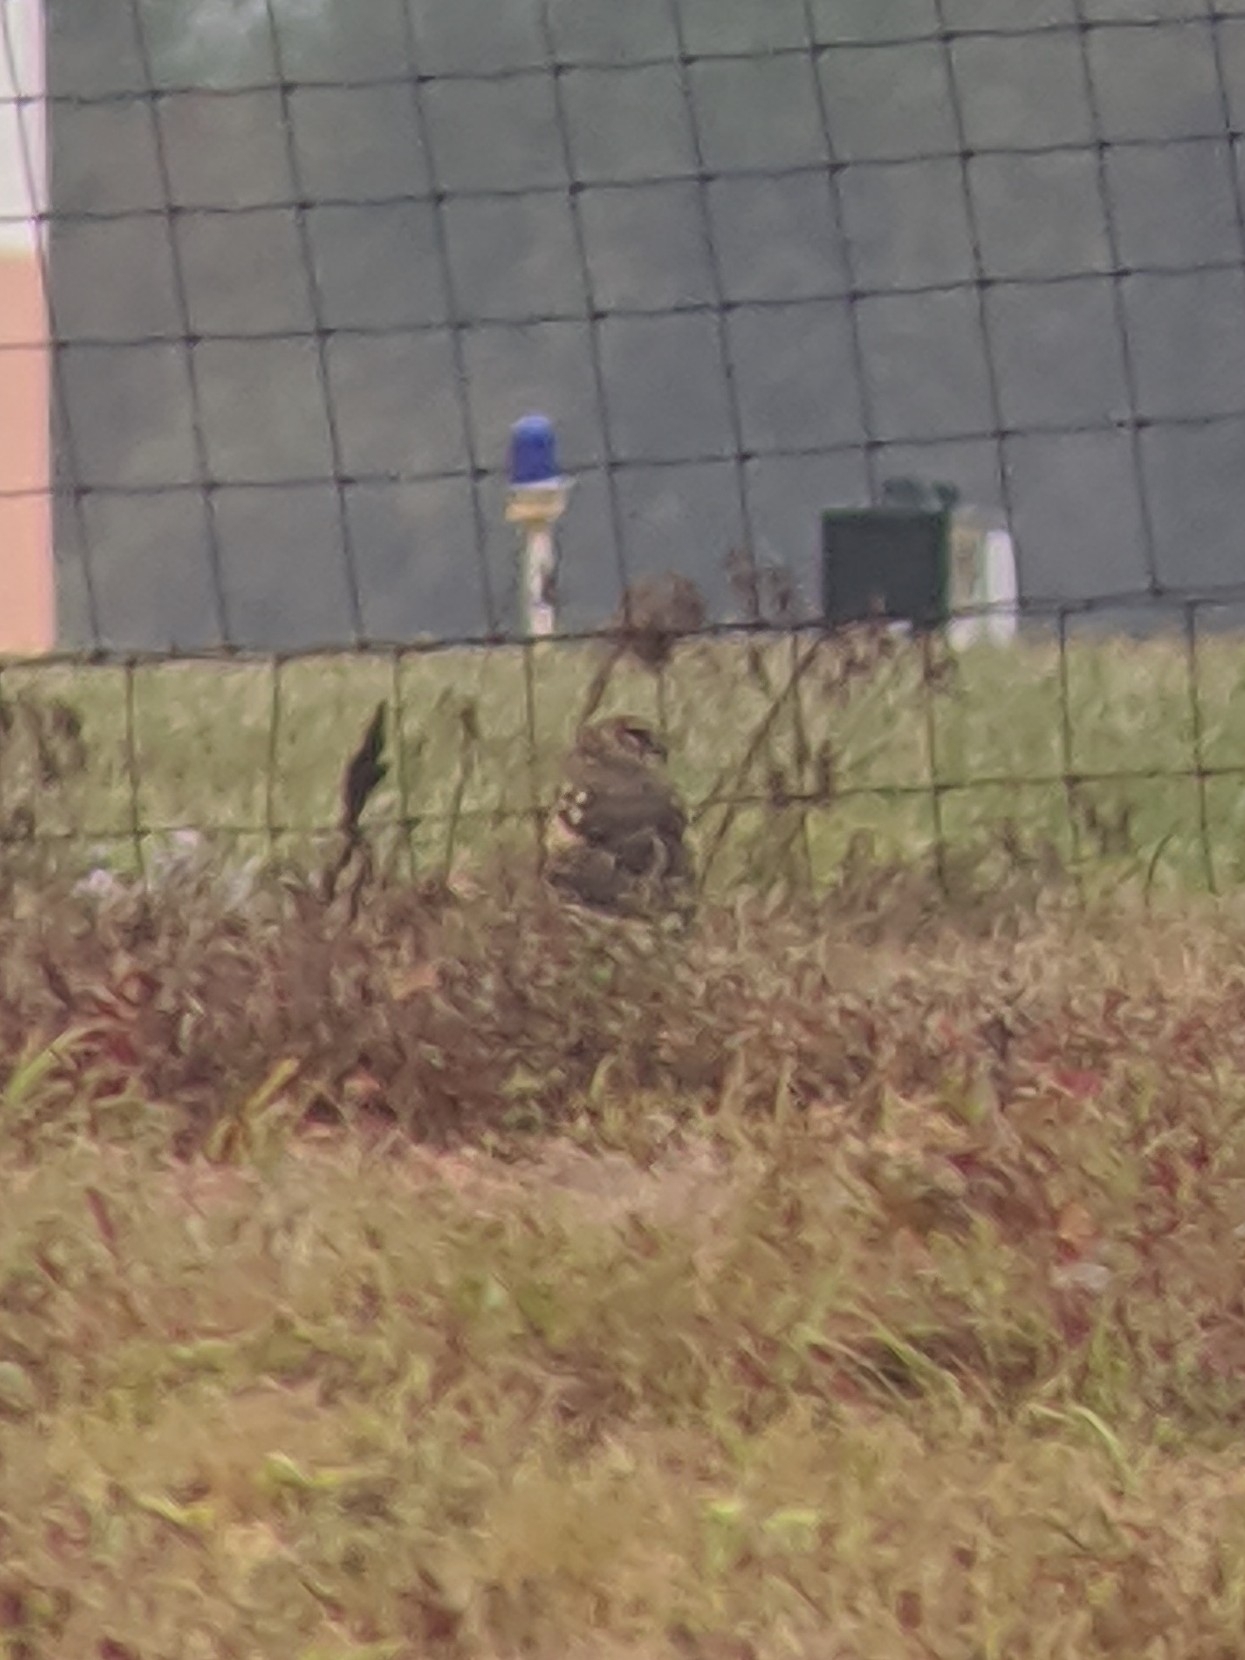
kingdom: Animalia
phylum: Chordata
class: Aves
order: Accipitriformes
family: Accipitridae
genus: Circus
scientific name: Circus cyaneus
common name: Hen harrier
